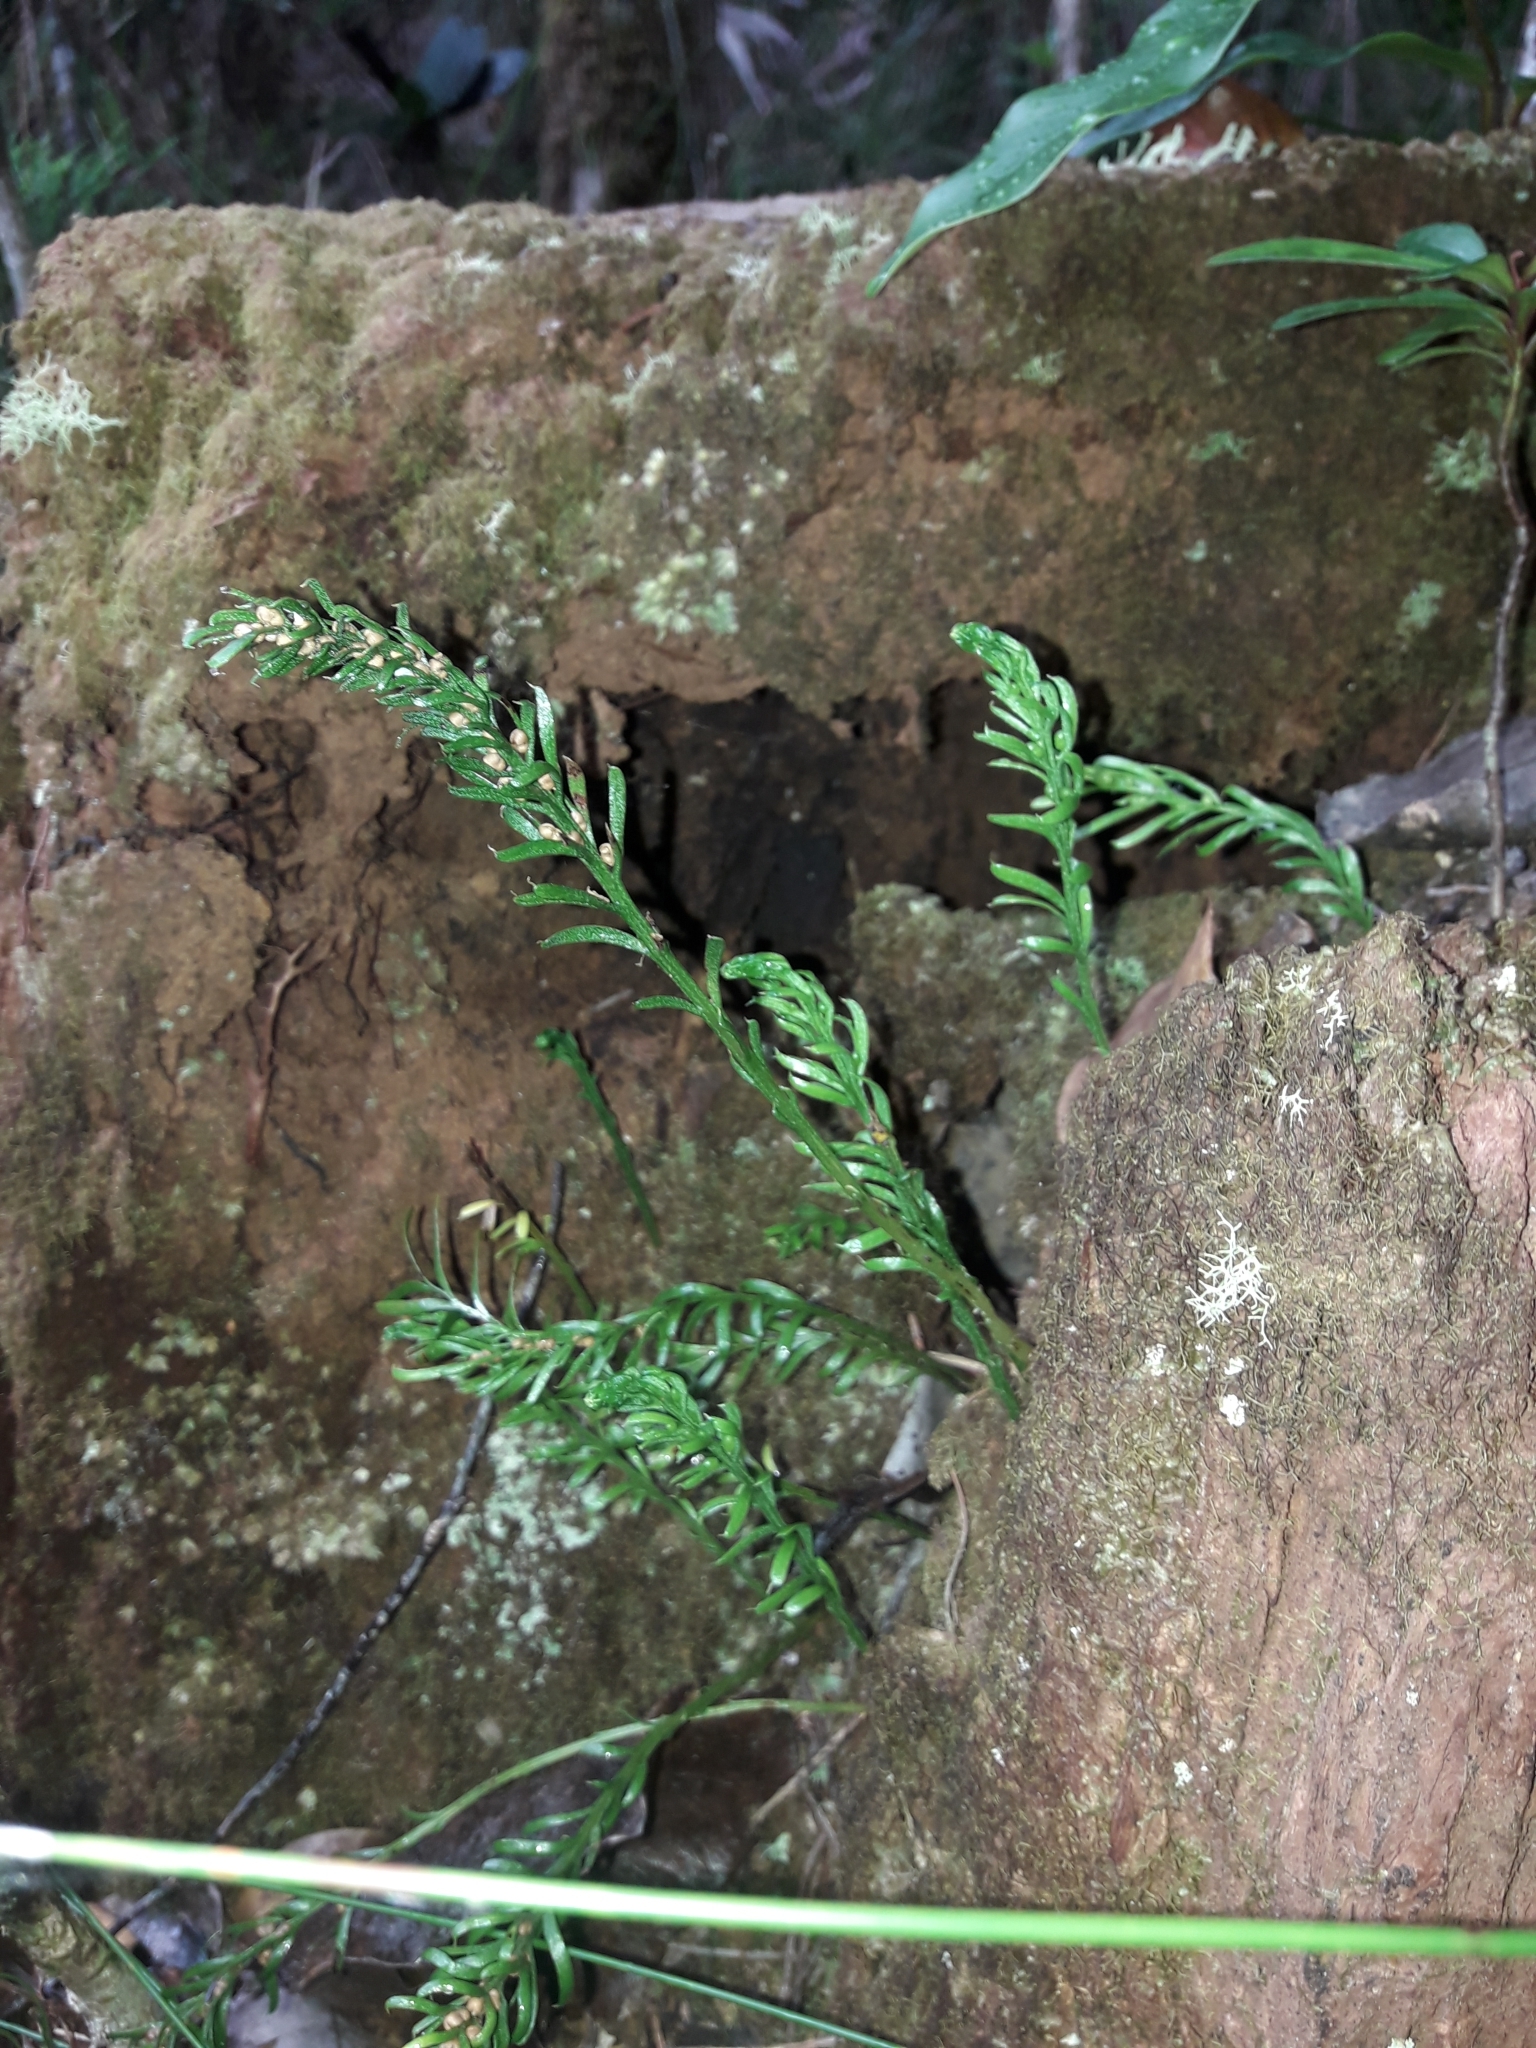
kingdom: Plantae
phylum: Tracheophyta
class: Polypodiopsida
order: Psilotales
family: Psilotaceae
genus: Tmesipteris
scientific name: Tmesipteris vieillardii
